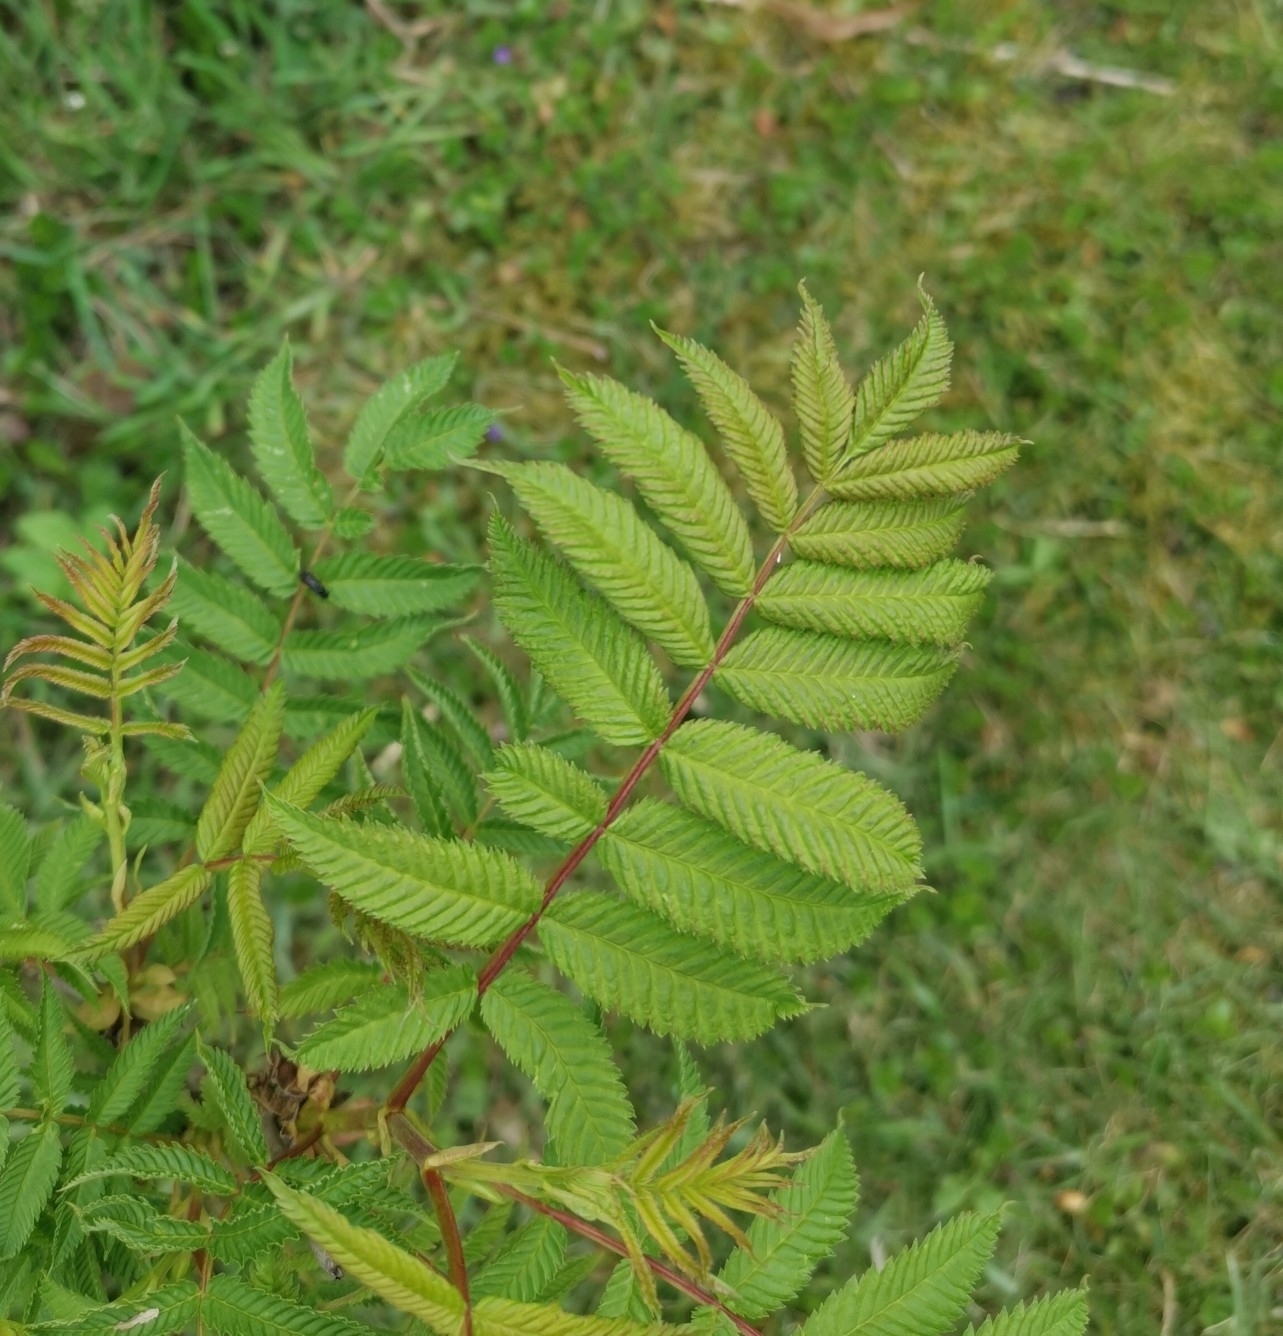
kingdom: Plantae
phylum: Tracheophyta
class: Magnoliopsida
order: Rosales
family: Rosaceae
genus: Sorbaria
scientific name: Sorbaria sorbifolia
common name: False spiraea
